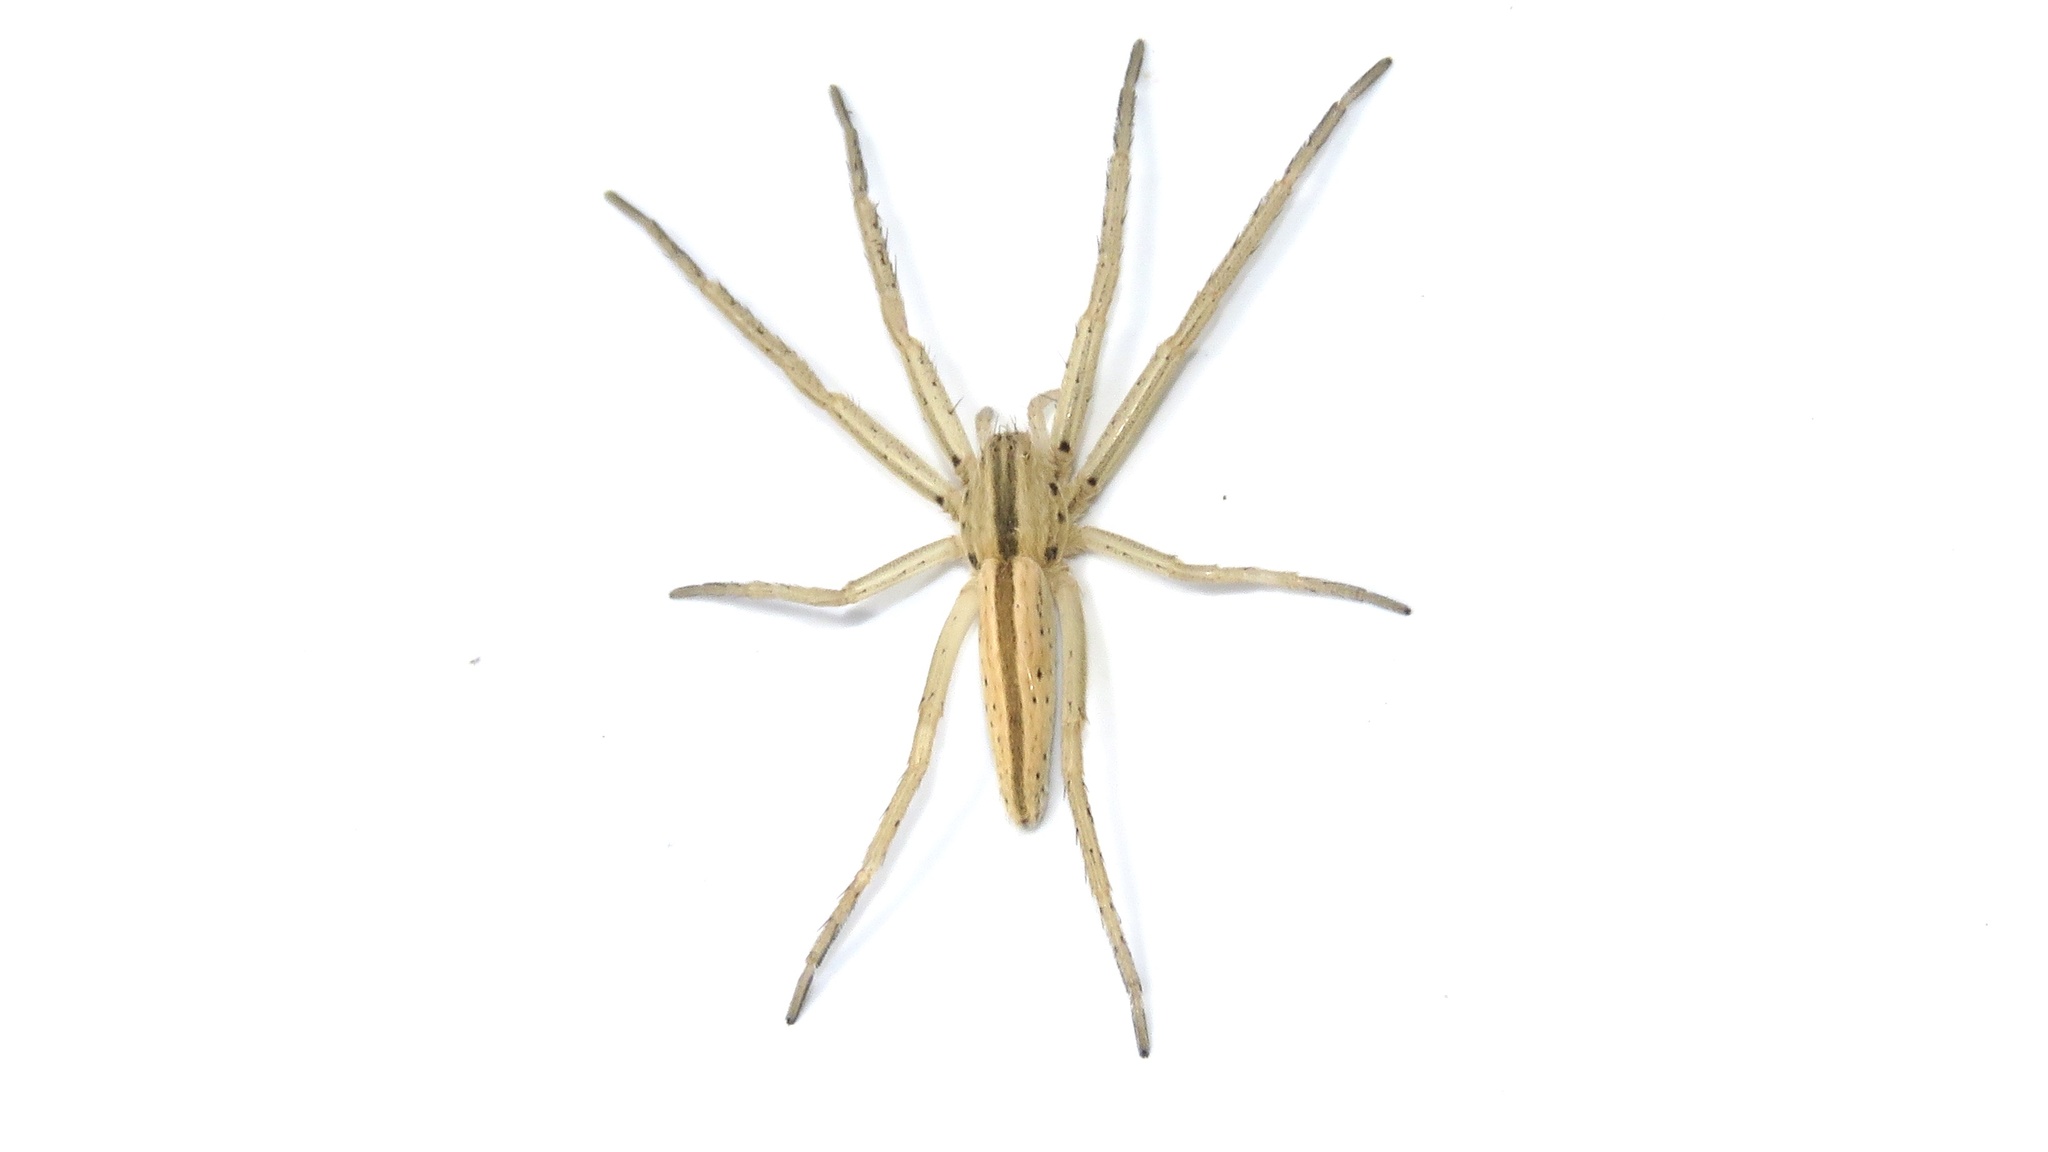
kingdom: Animalia
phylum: Arthropoda
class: Arachnida
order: Araneae
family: Philodromidae
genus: Tibellus
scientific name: Tibellus maritimus
